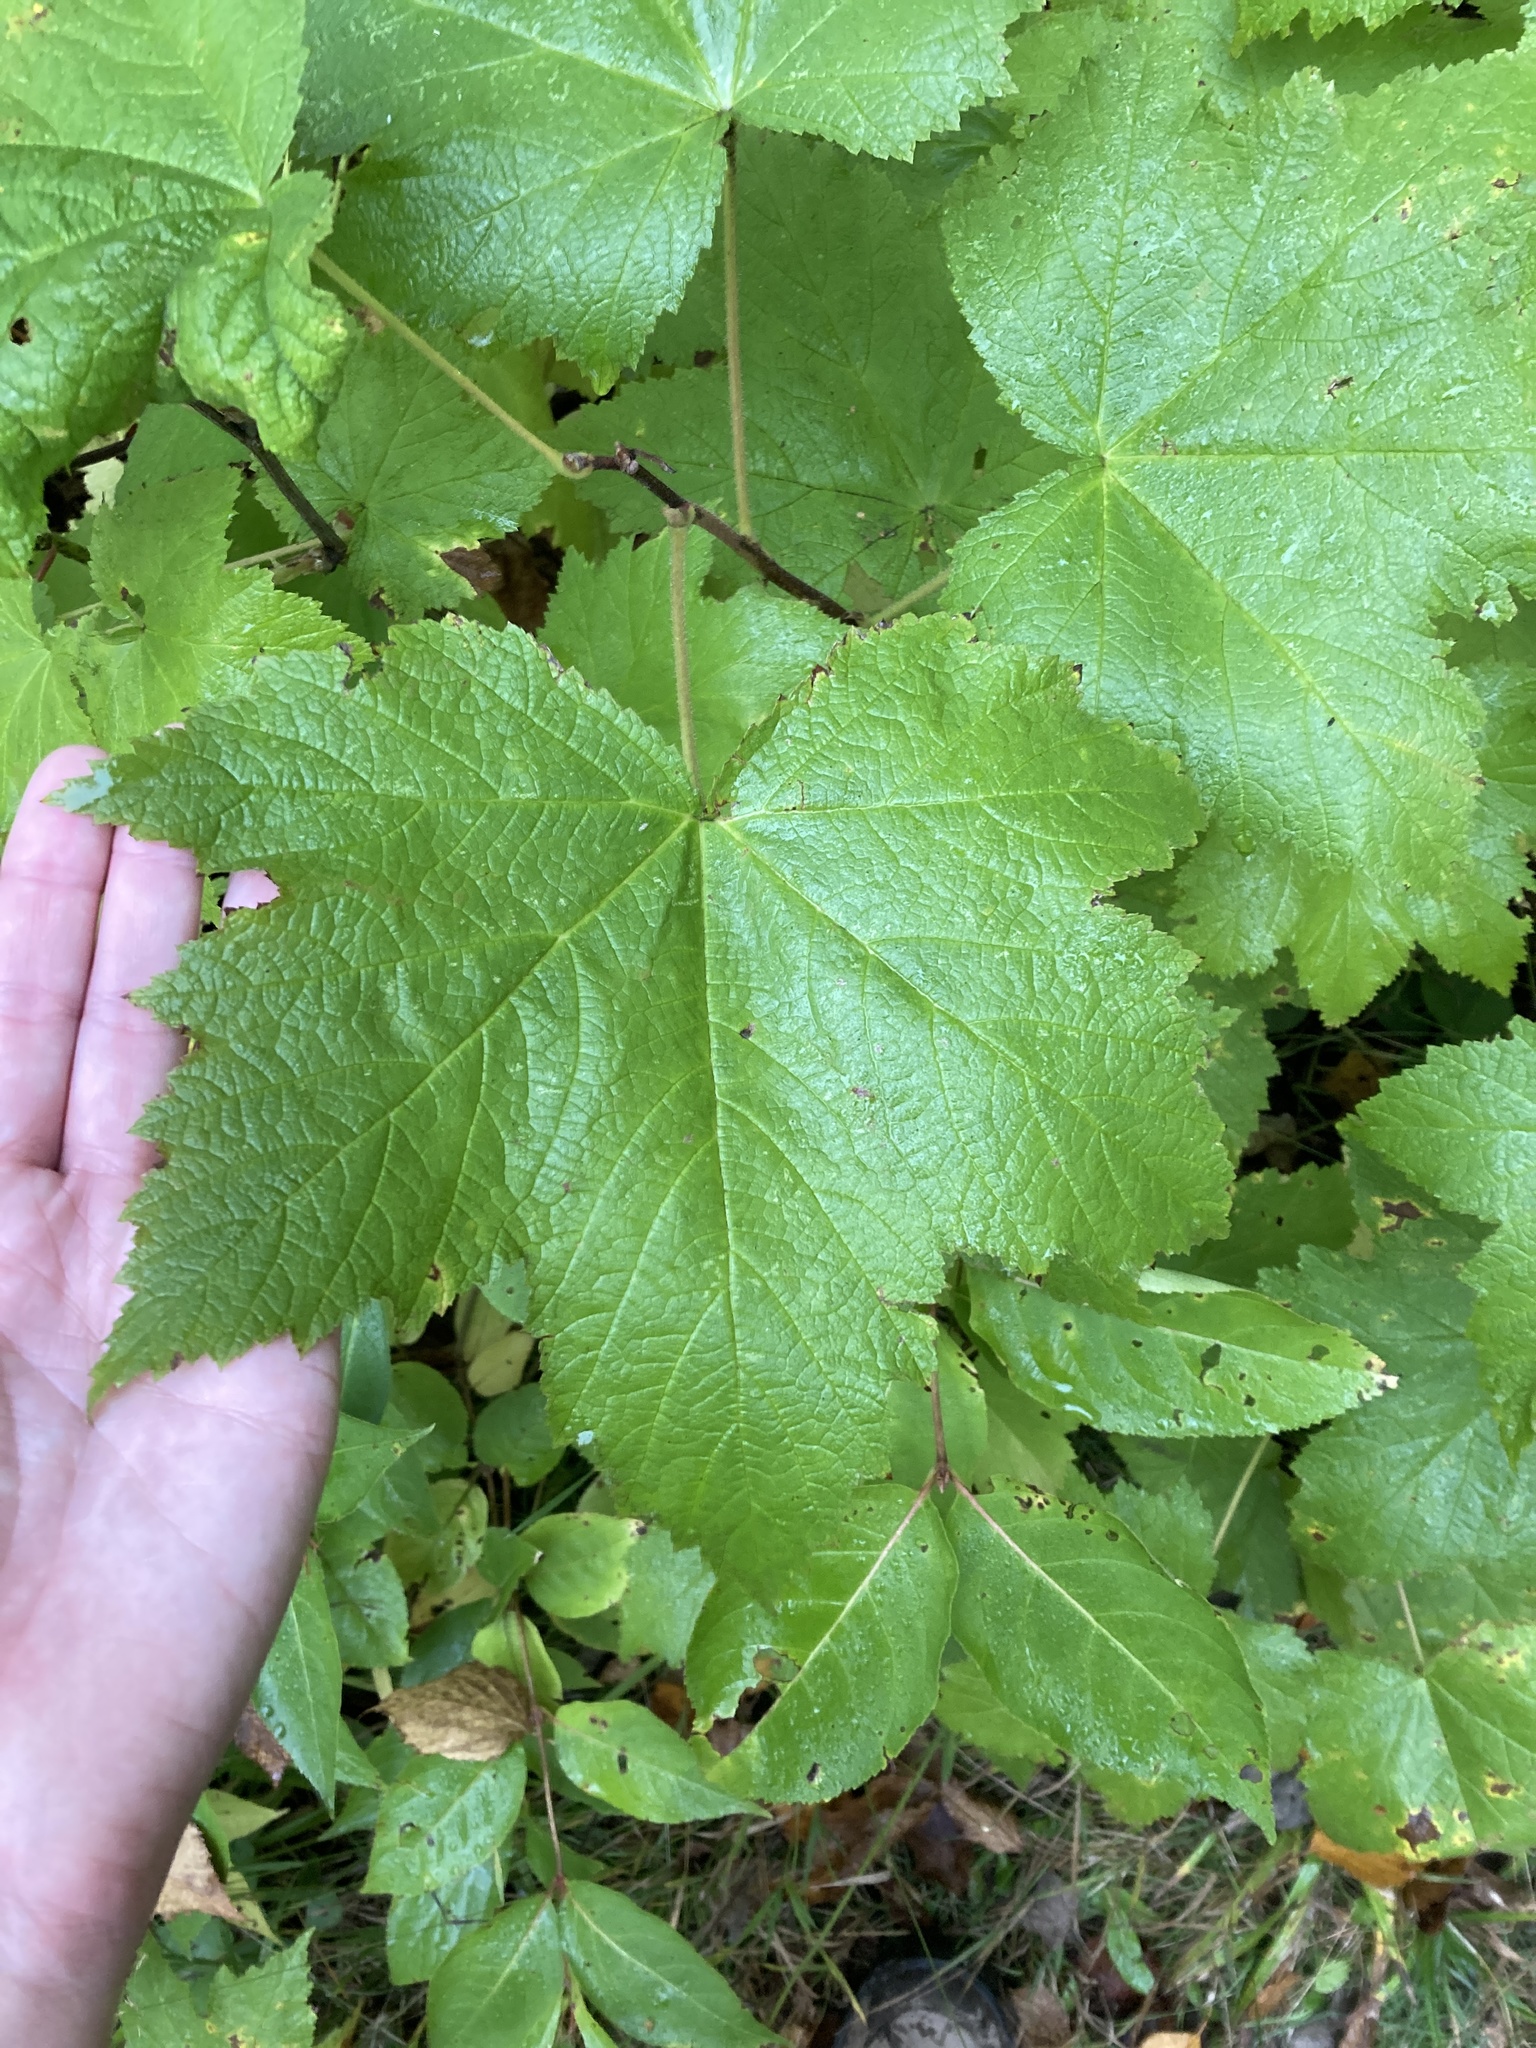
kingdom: Plantae
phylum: Tracheophyta
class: Magnoliopsida
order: Rosales
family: Rosaceae
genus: Rubus
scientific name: Rubus parviflorus
